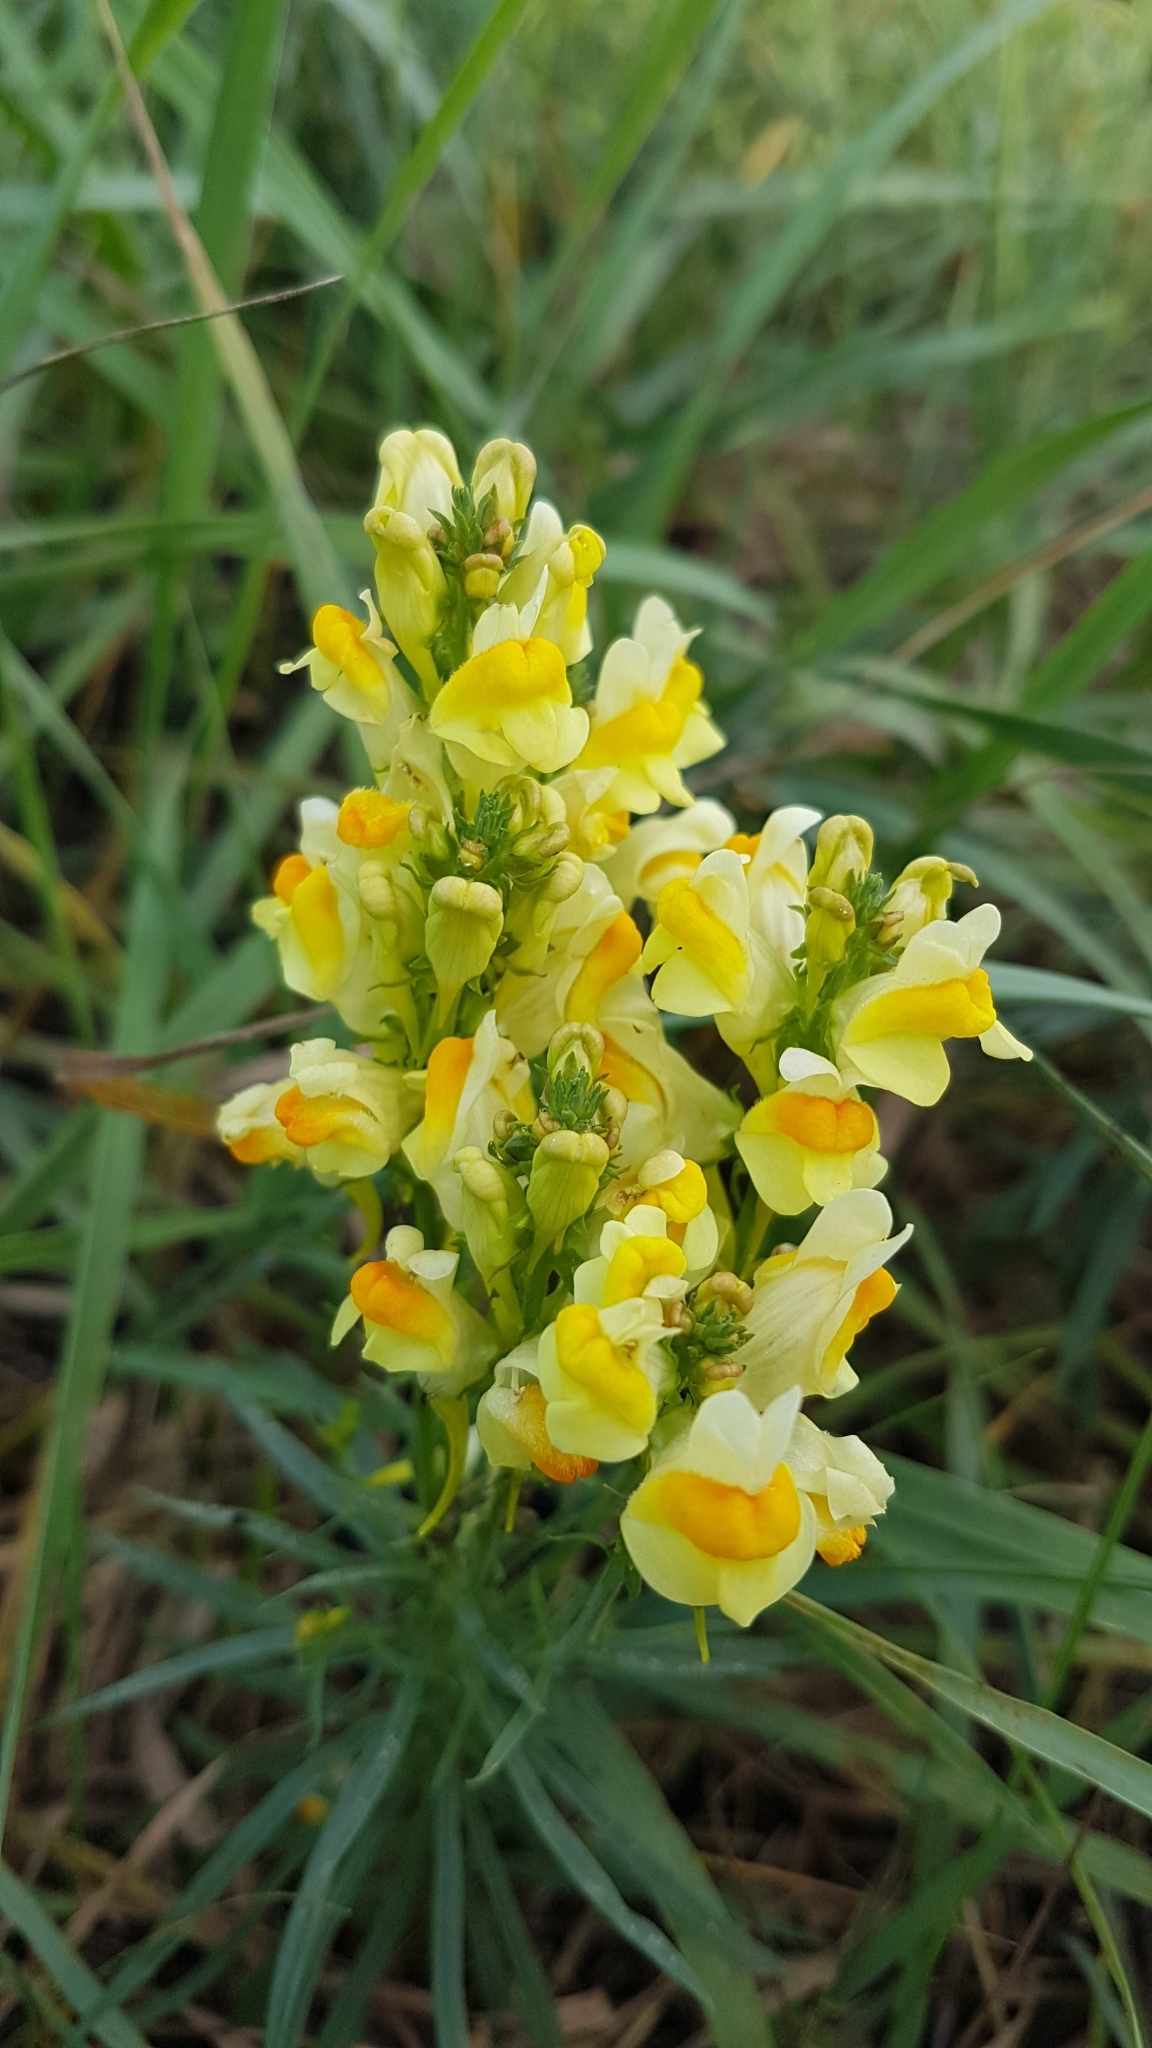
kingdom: Plantae
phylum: Tracheophyta
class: Magnoliopsida
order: Lamiales
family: Plantaginaceae
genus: Linaria
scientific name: Linaria vulgaris
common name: Butter and eggs
